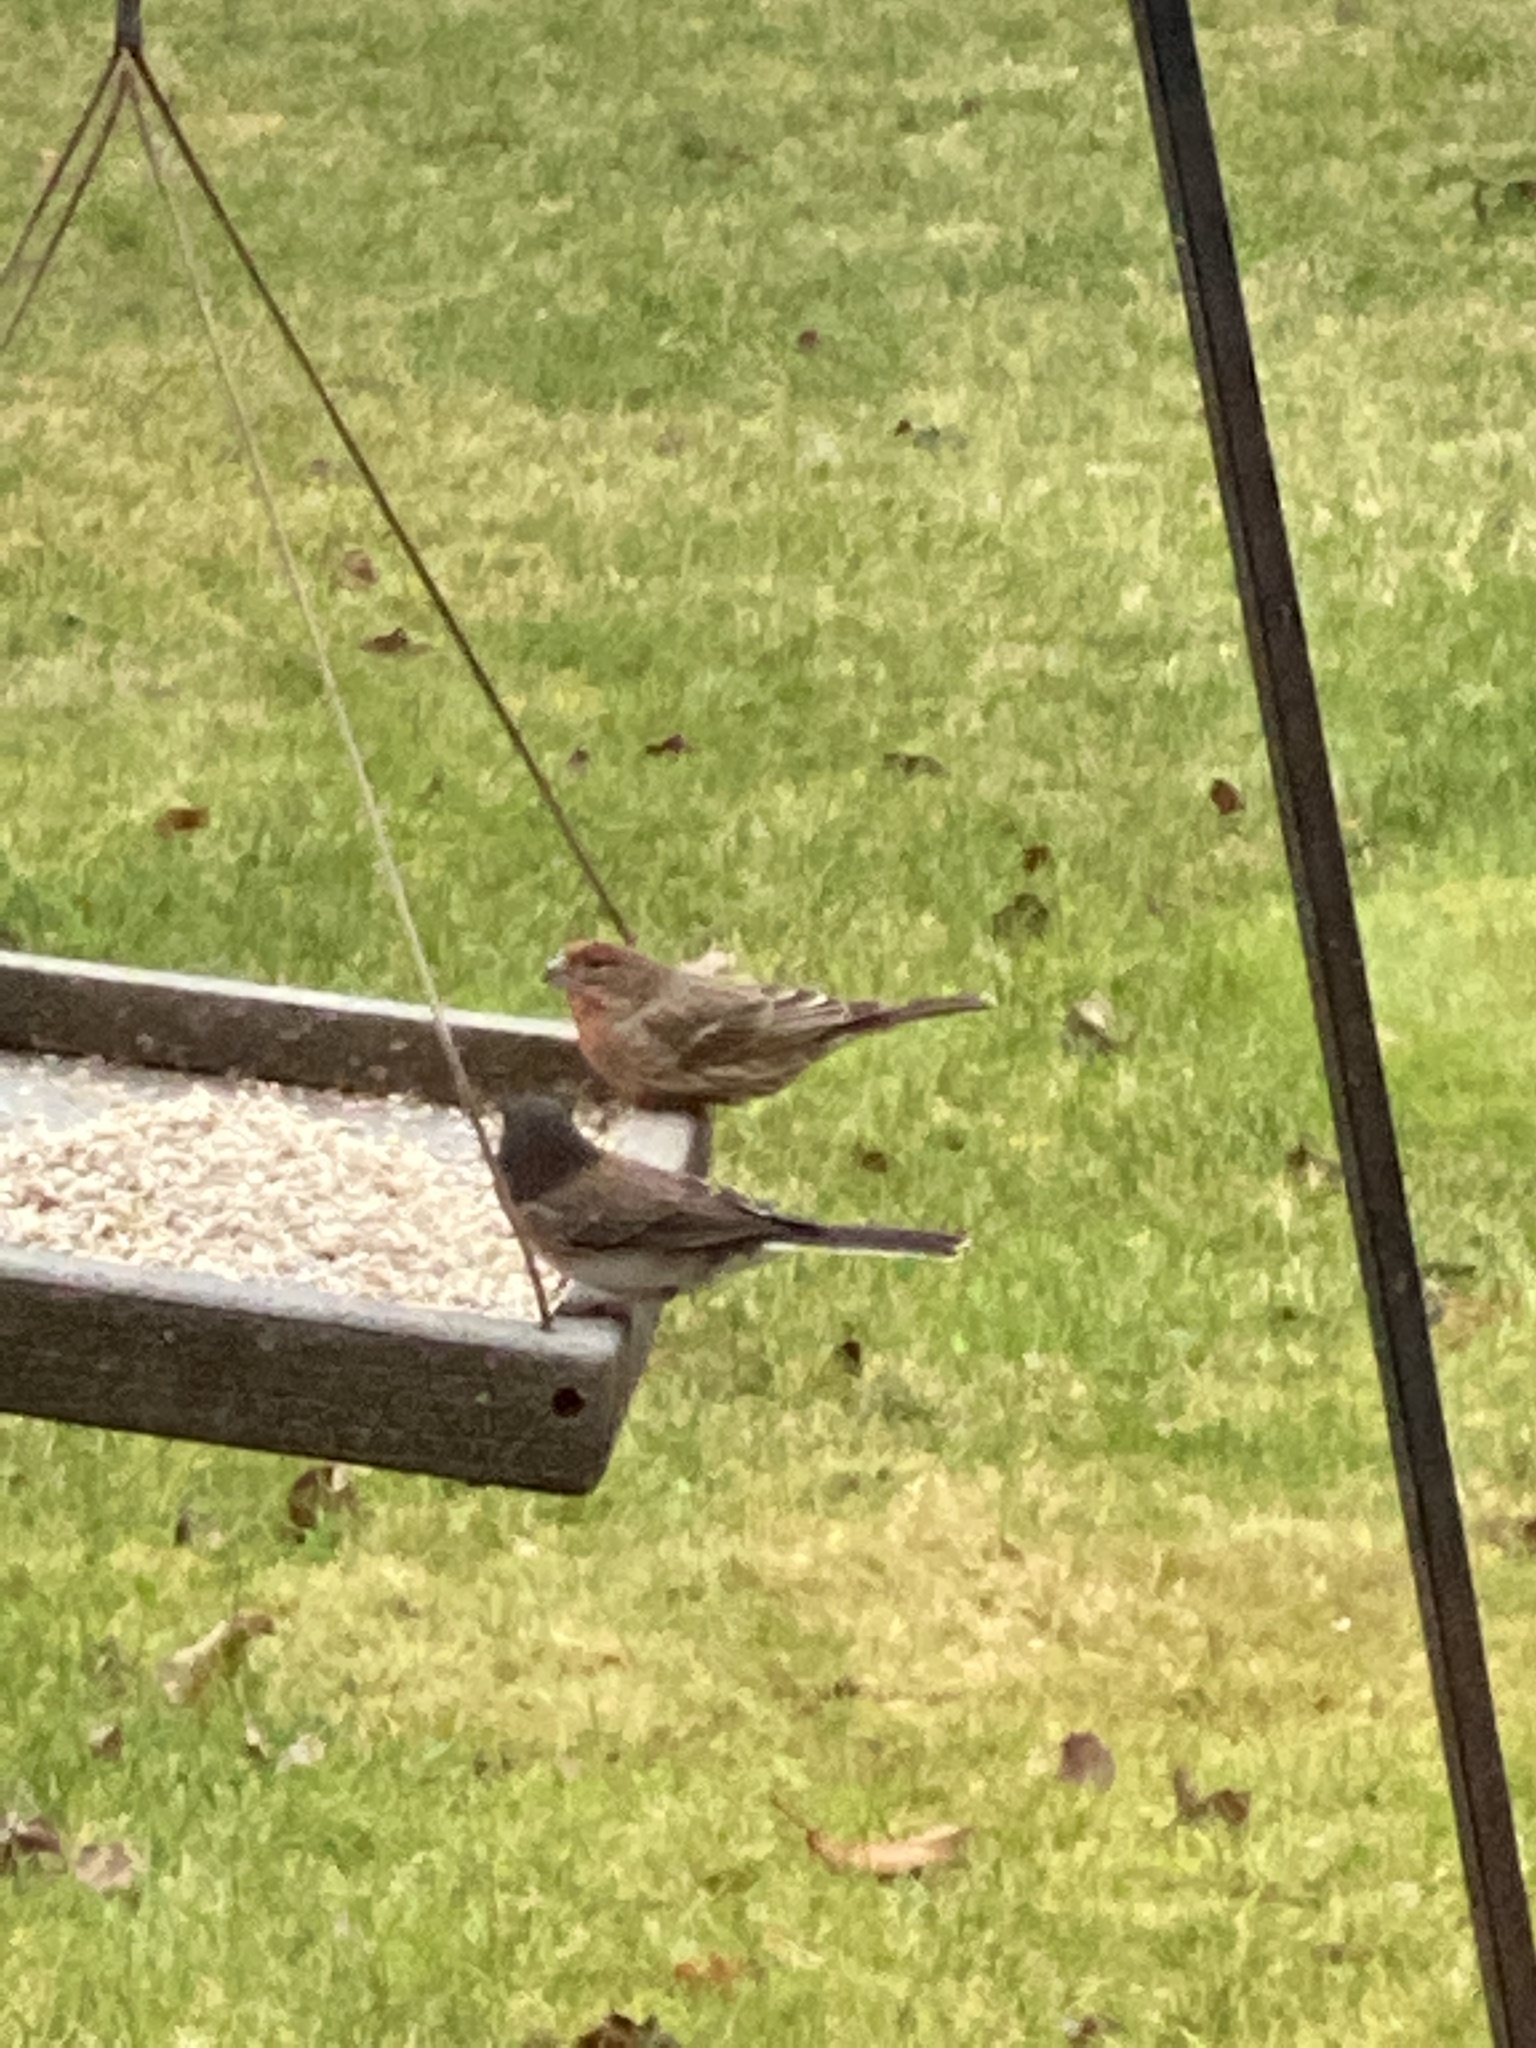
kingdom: Animalia
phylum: Chordata
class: Aves
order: Passeriformes
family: Fringillidae
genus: Haemorhous
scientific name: Haemorhous mexicanus
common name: House finch
